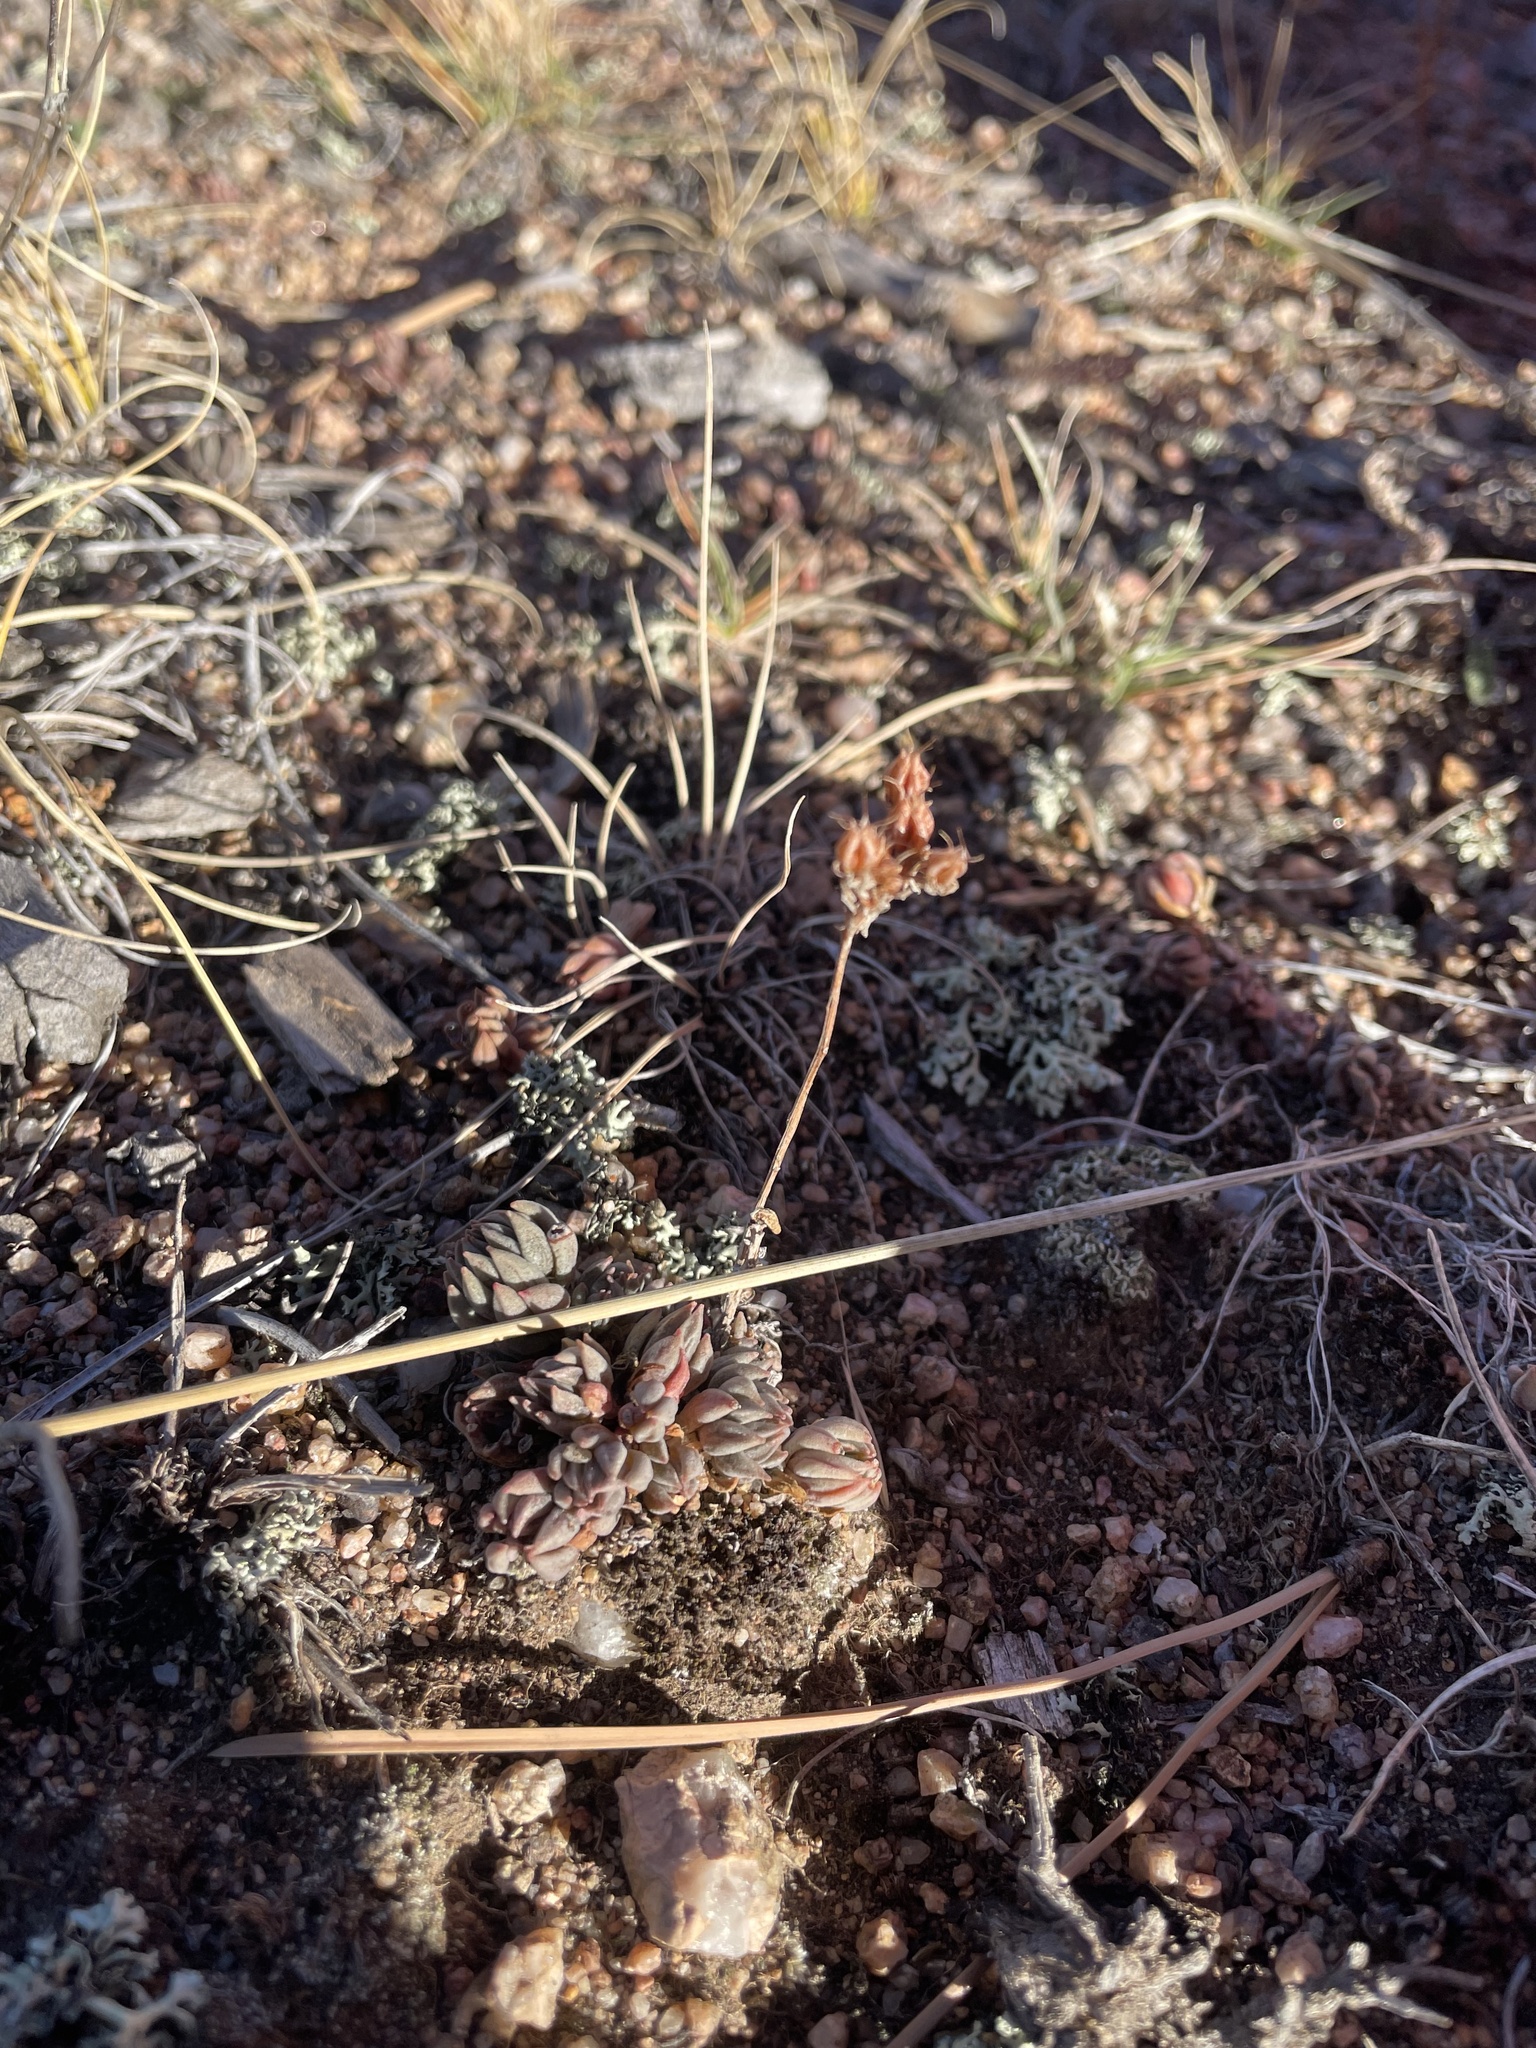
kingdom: Plantae
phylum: Tracheophyta
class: Magnoliopsida
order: Saxifragales
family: Crassulaceae
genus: Sedum
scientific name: Sedum lanceolatum
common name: Common stonecrop
